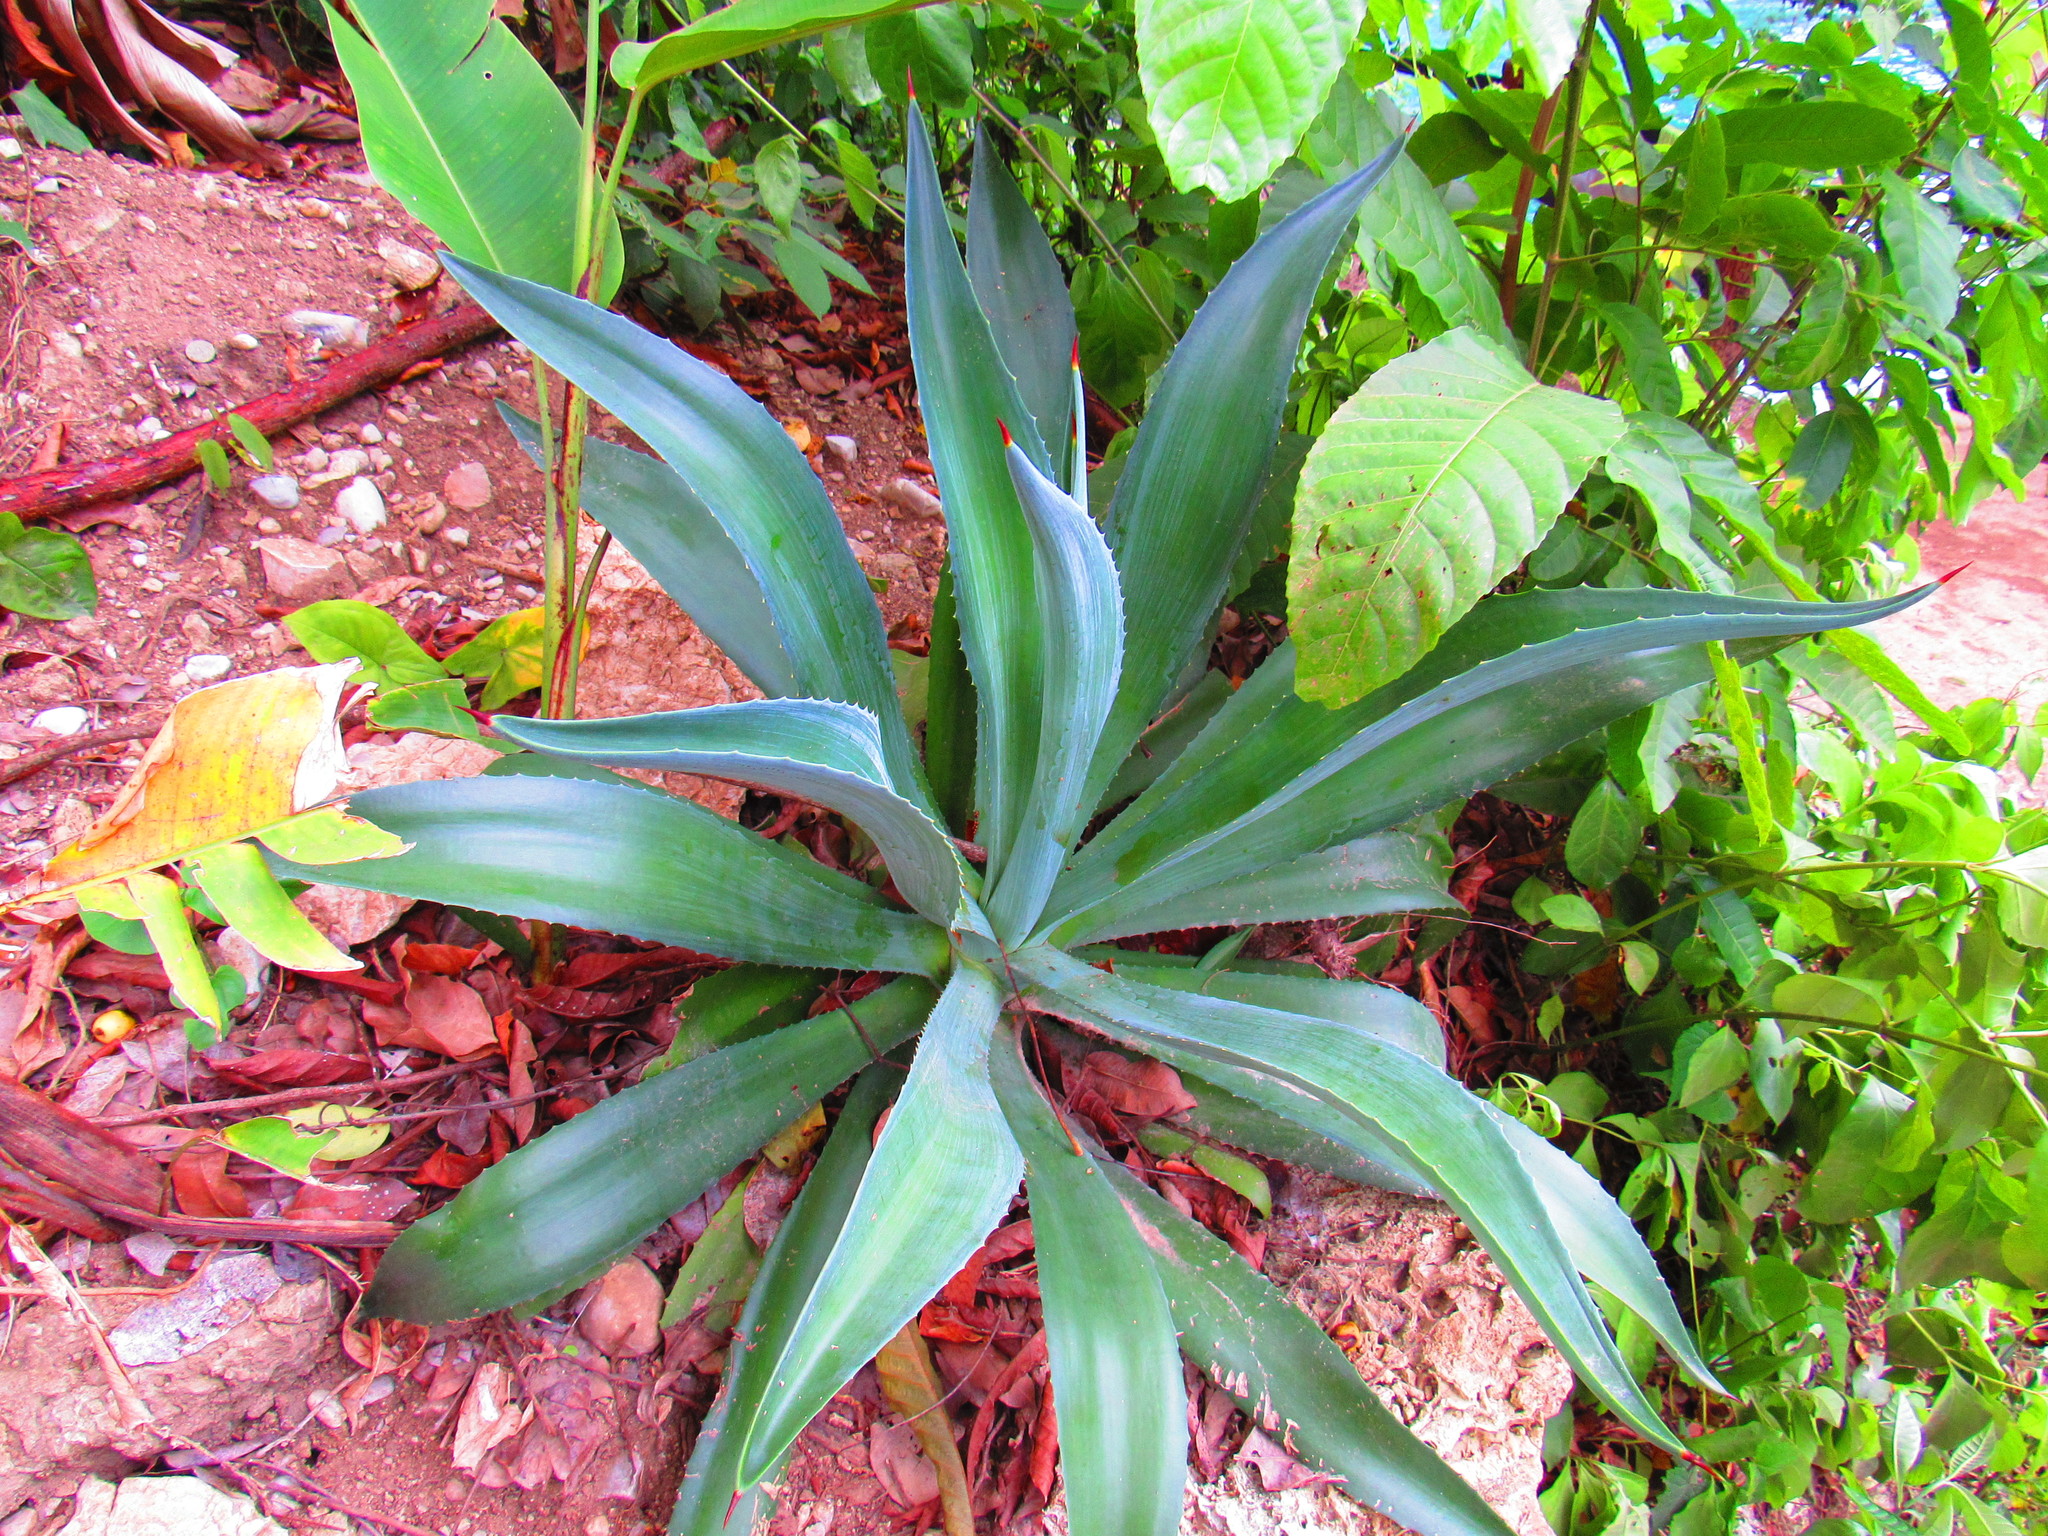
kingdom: Plantae
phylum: Tracheophyta
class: Liliopsida
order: Asparagales
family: Asparagaceae
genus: Agave
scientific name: Agave
